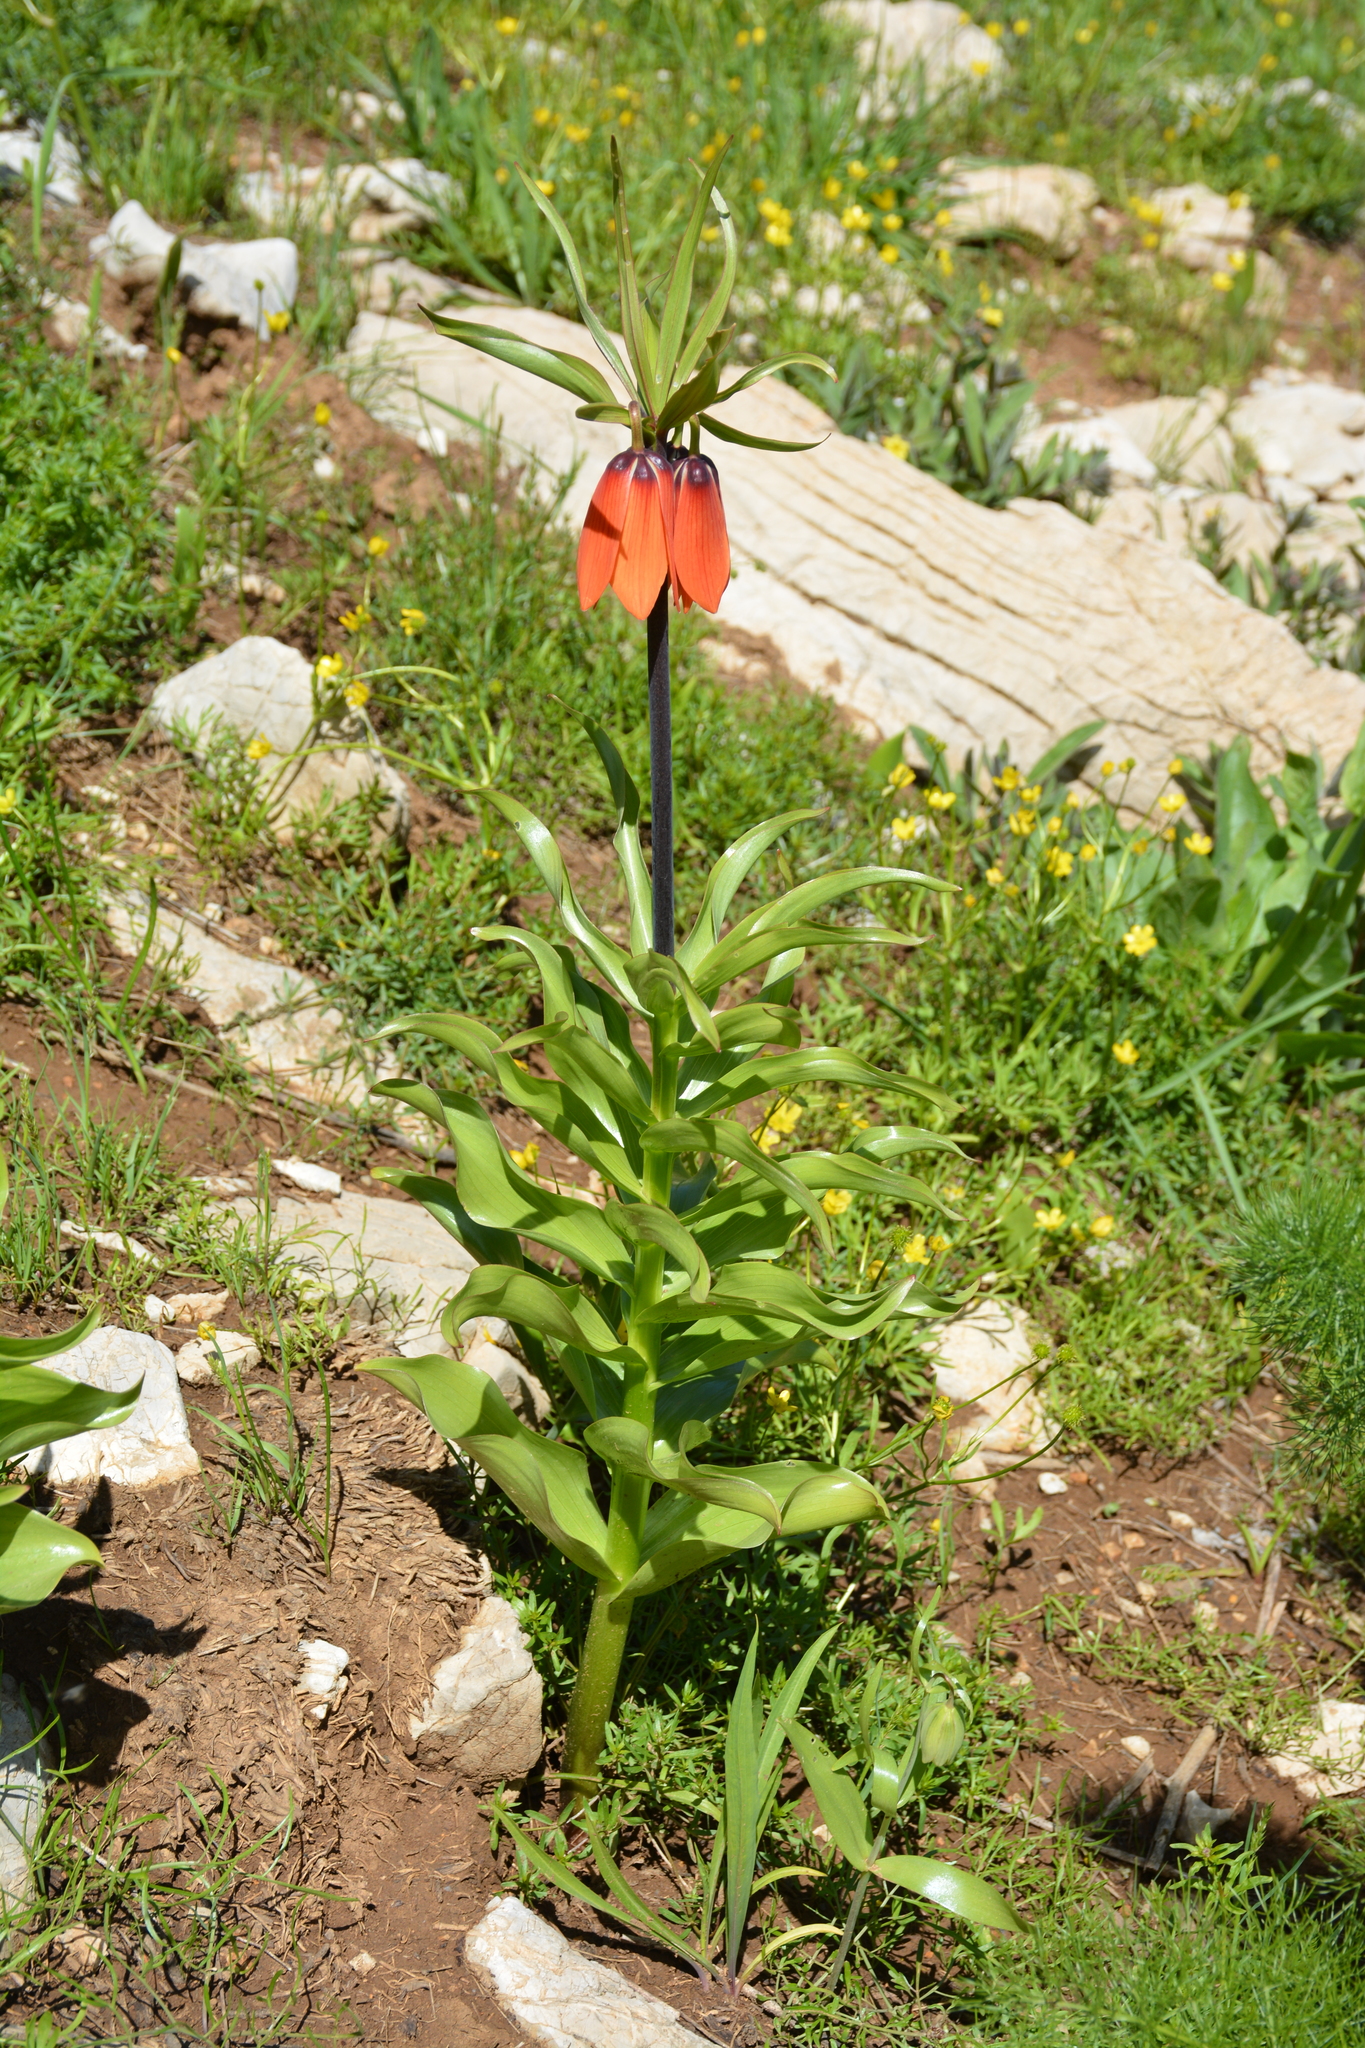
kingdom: Plantae
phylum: Tracheophyta
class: Liliopsida
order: Liliales
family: Liliaceae
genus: Fritillaria
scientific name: Fritillaria imperialis
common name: Imperial fritillary
